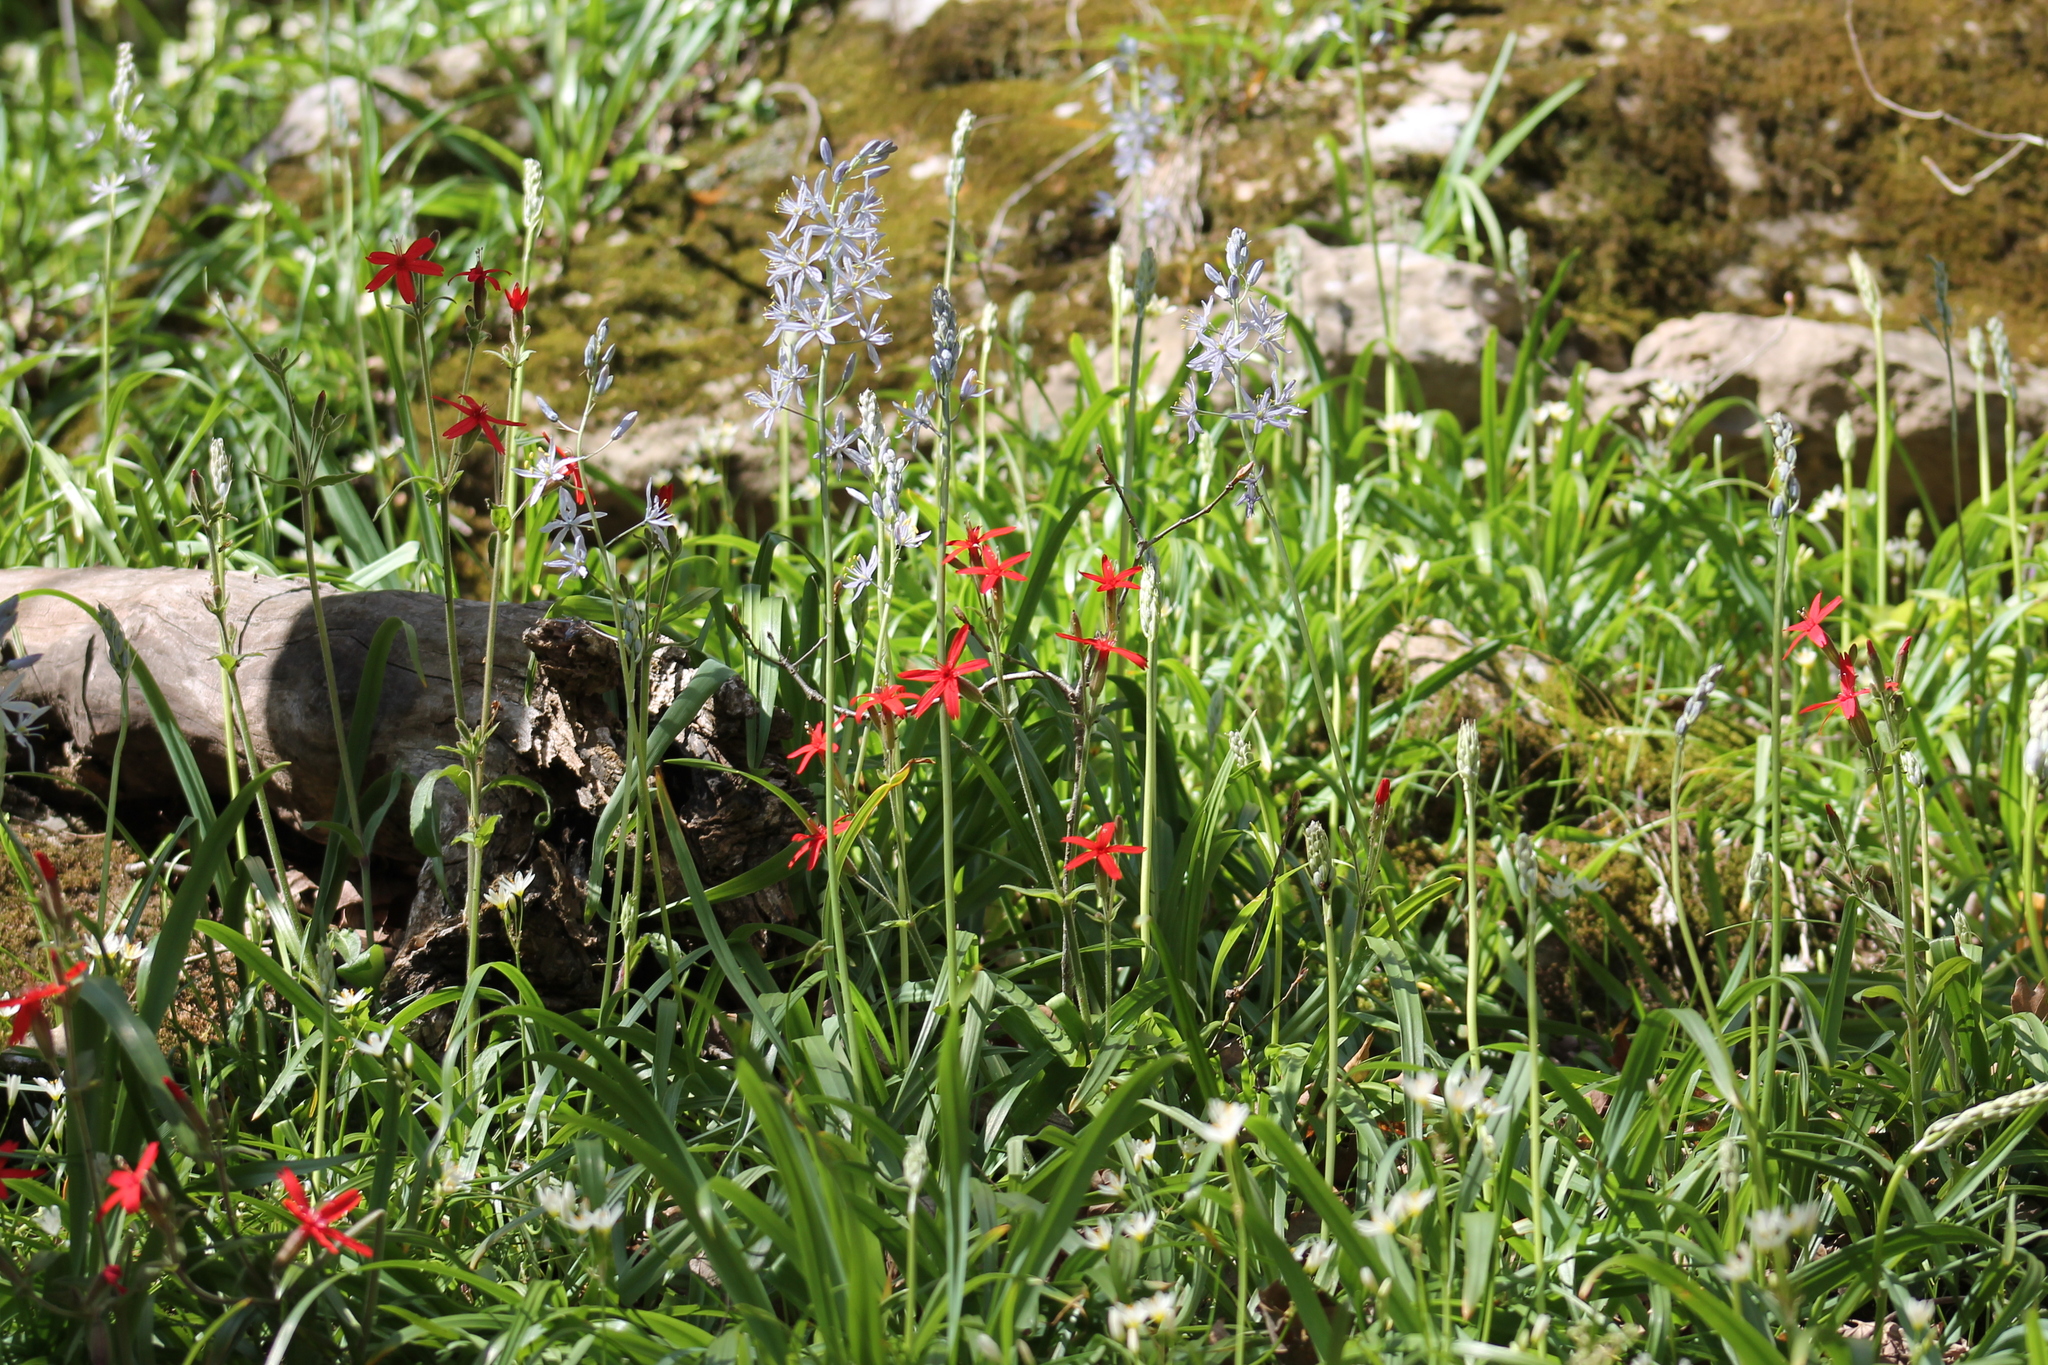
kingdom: Plantae
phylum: Tracheophyta
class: Liliopsida
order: Asparagales
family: Asparagaceae
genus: Camassia
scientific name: Camassia scilloides
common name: Wild hyacinth
